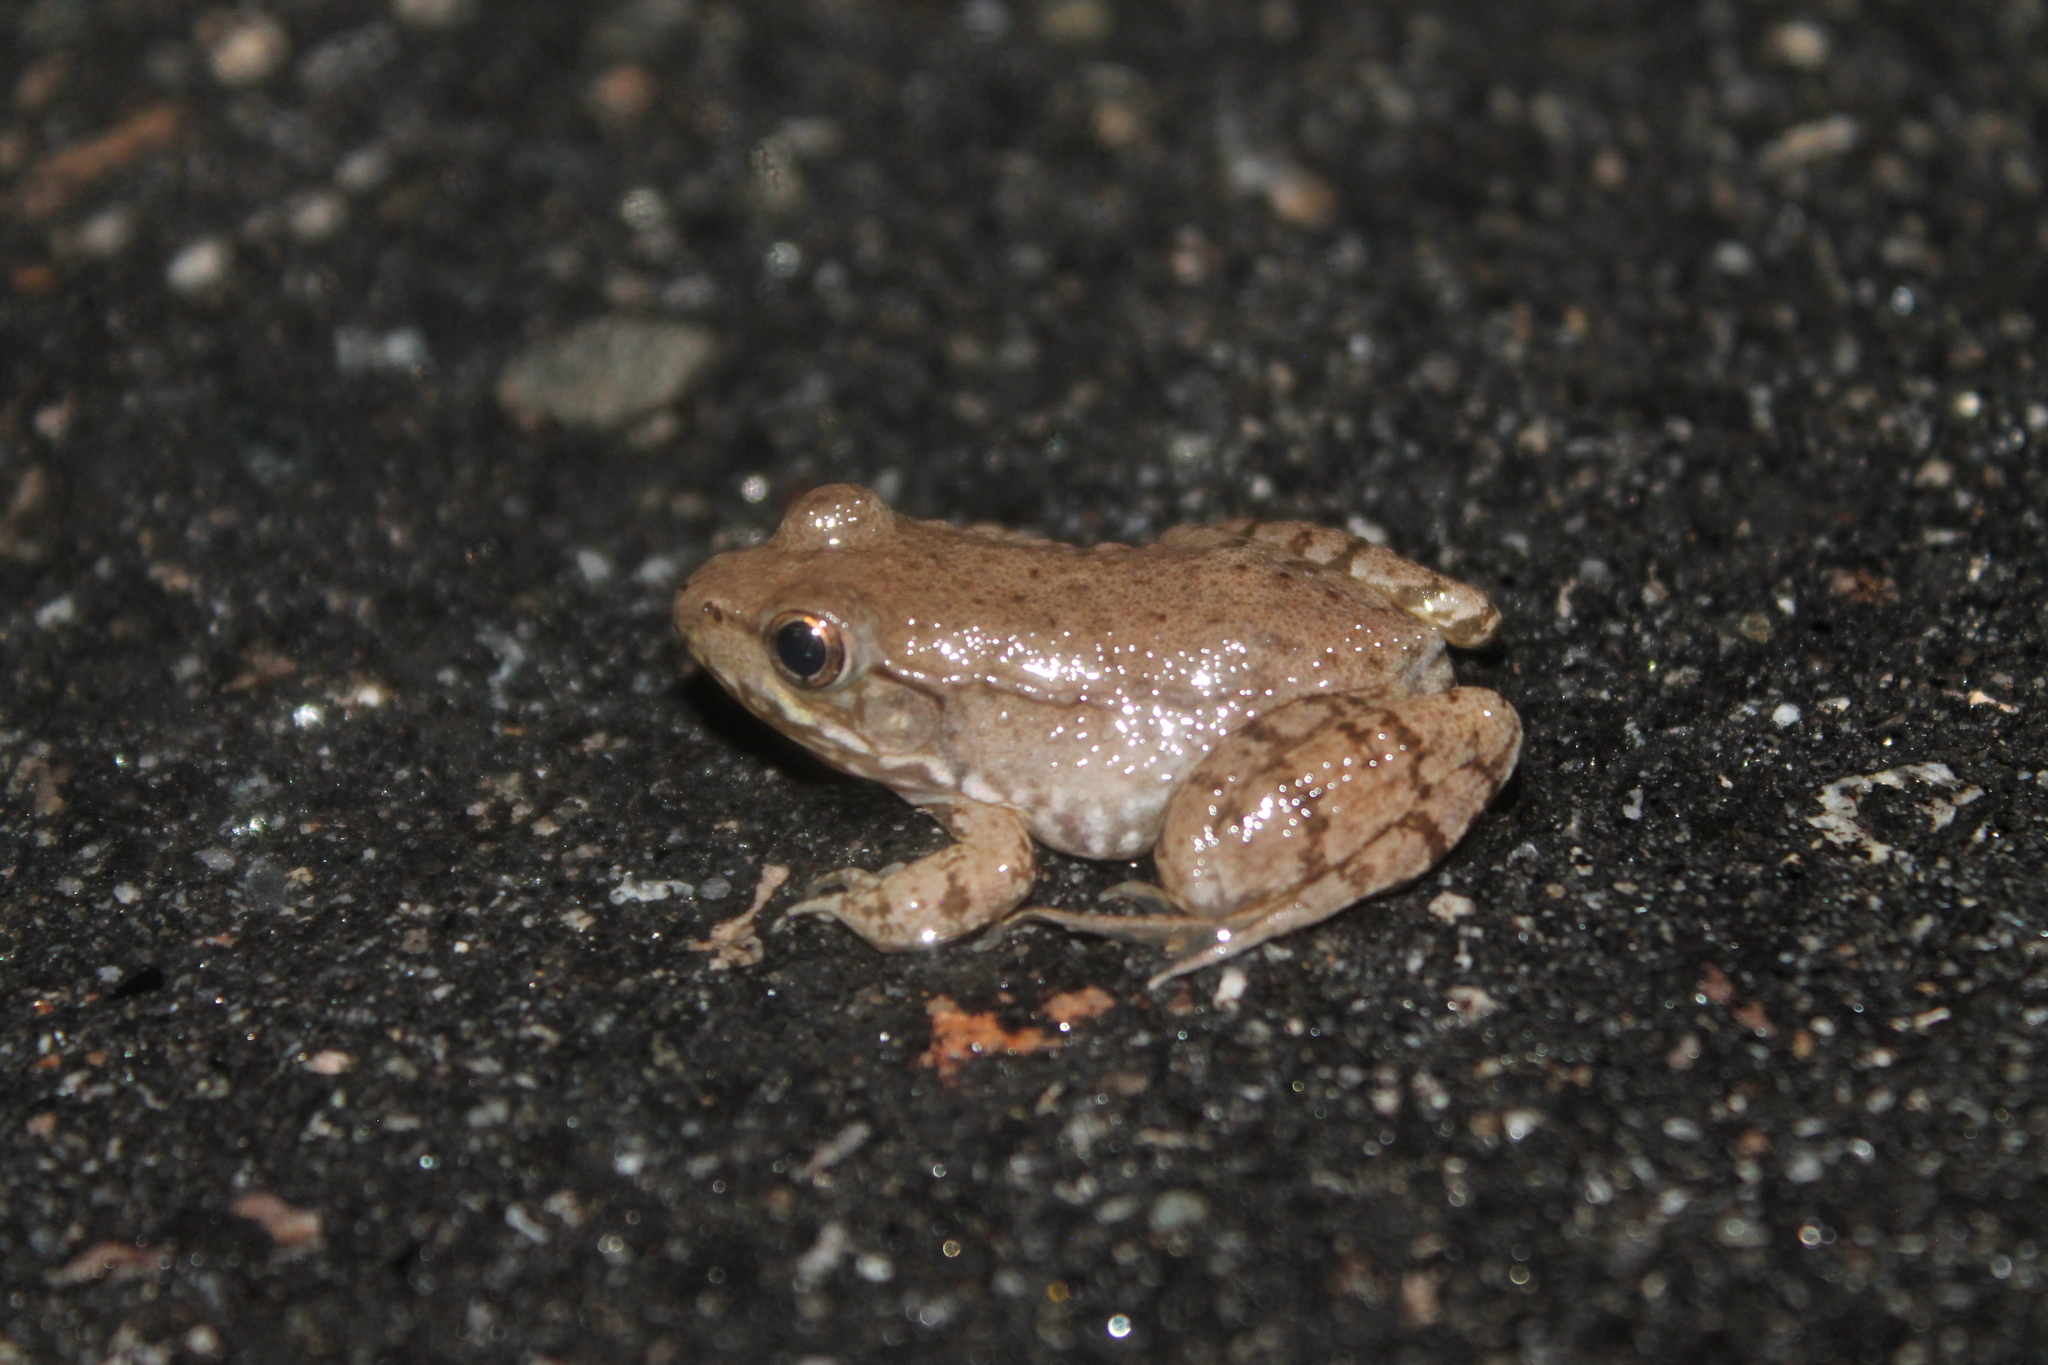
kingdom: Animalia
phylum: Chordata
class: Amphibia
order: Anura
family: Ranidae
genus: Lithobates
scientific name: Lithobates clamitans
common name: Green frog
